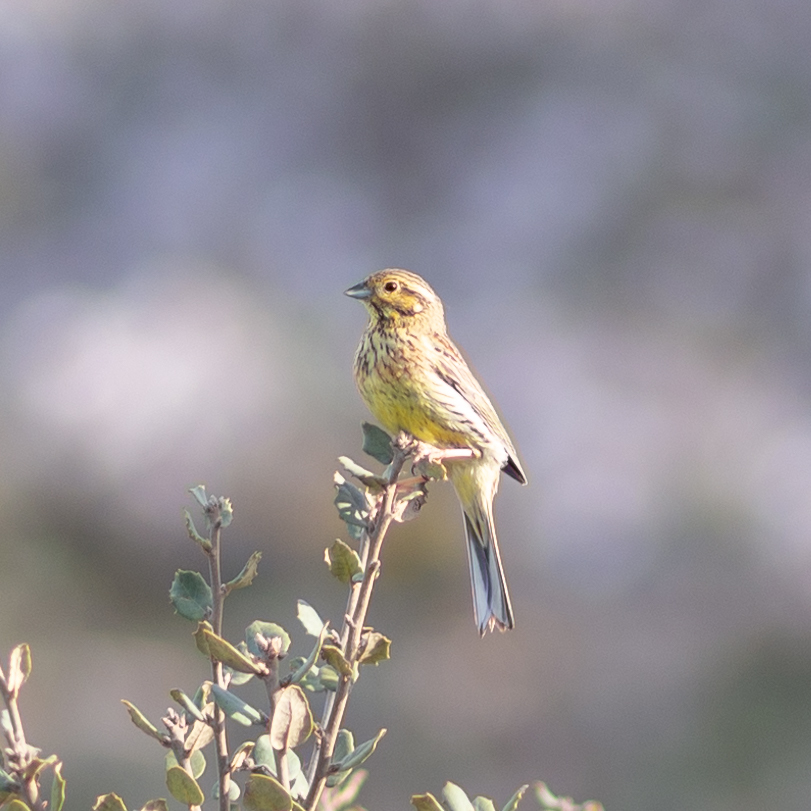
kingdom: Animalia
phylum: Chordata
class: Aves
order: Passeriformes
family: Emberizidae
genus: Emberiza
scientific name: Emberiza citrinella
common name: Yellowhammer
